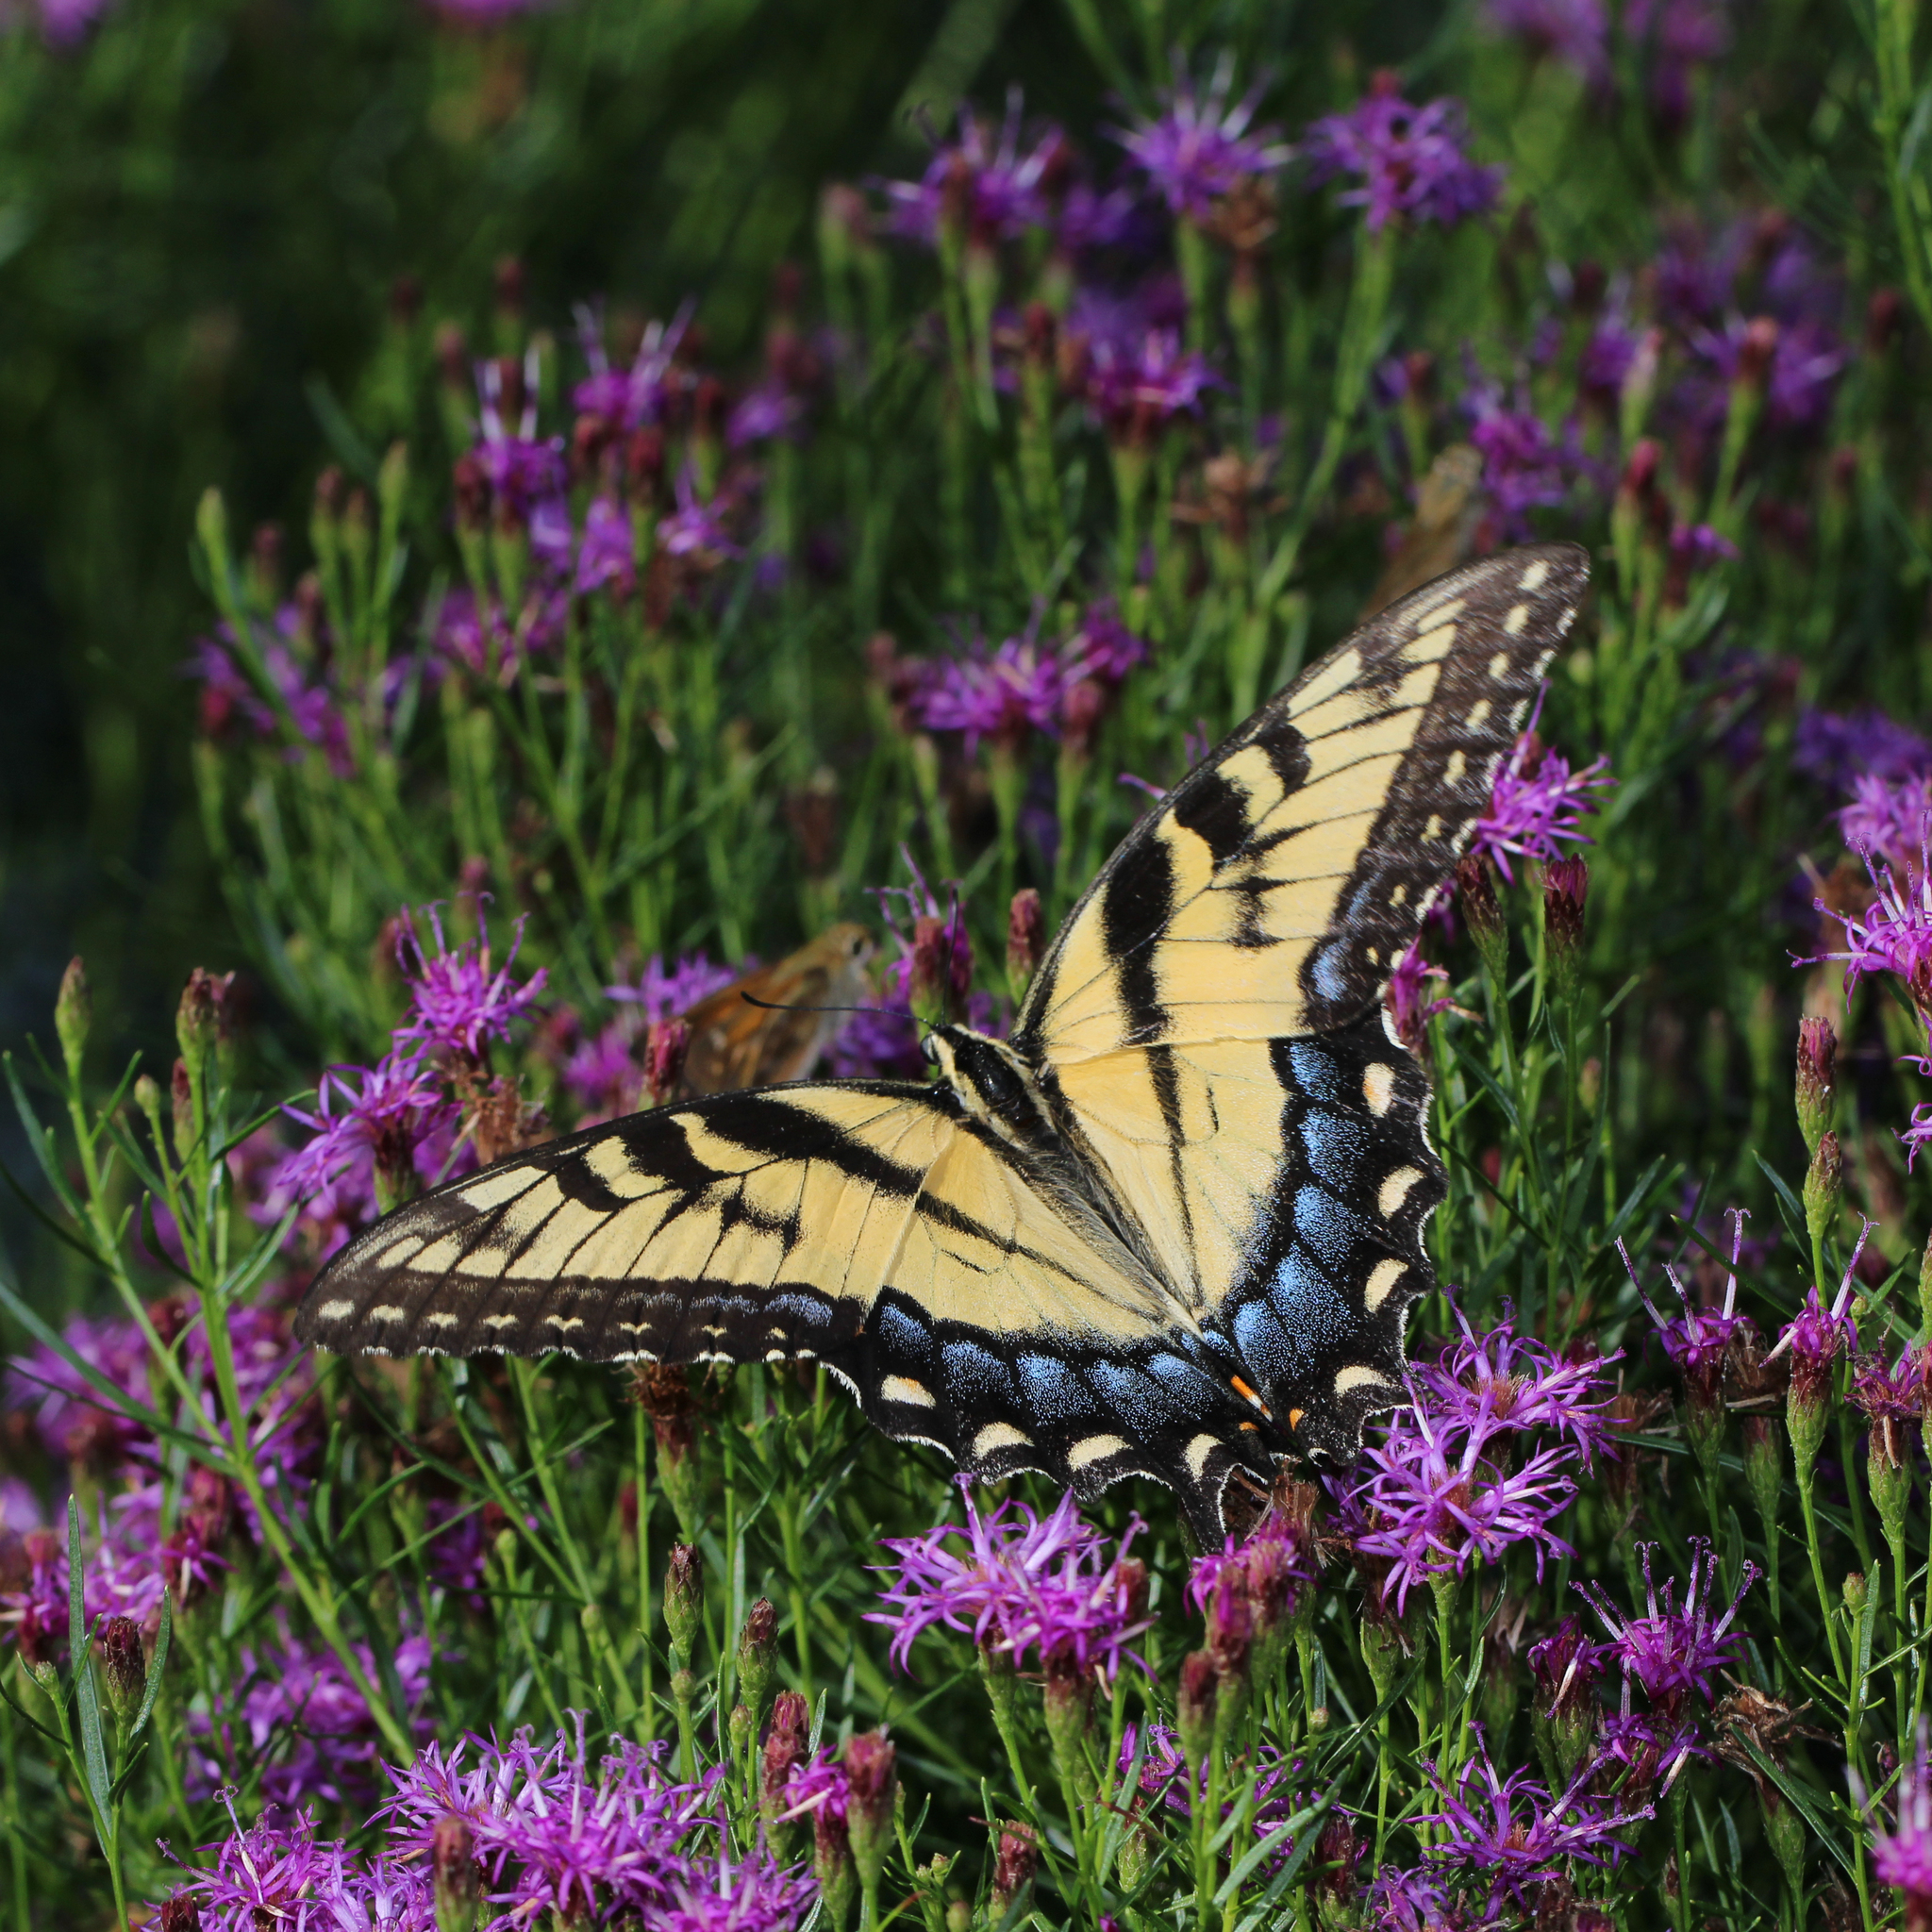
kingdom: Animalia
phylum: Arthropoda
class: Insecta
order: Lepidoptera
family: Papilionidae
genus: Papilio
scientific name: Papilio glaucus
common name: Tiger swallowtail
